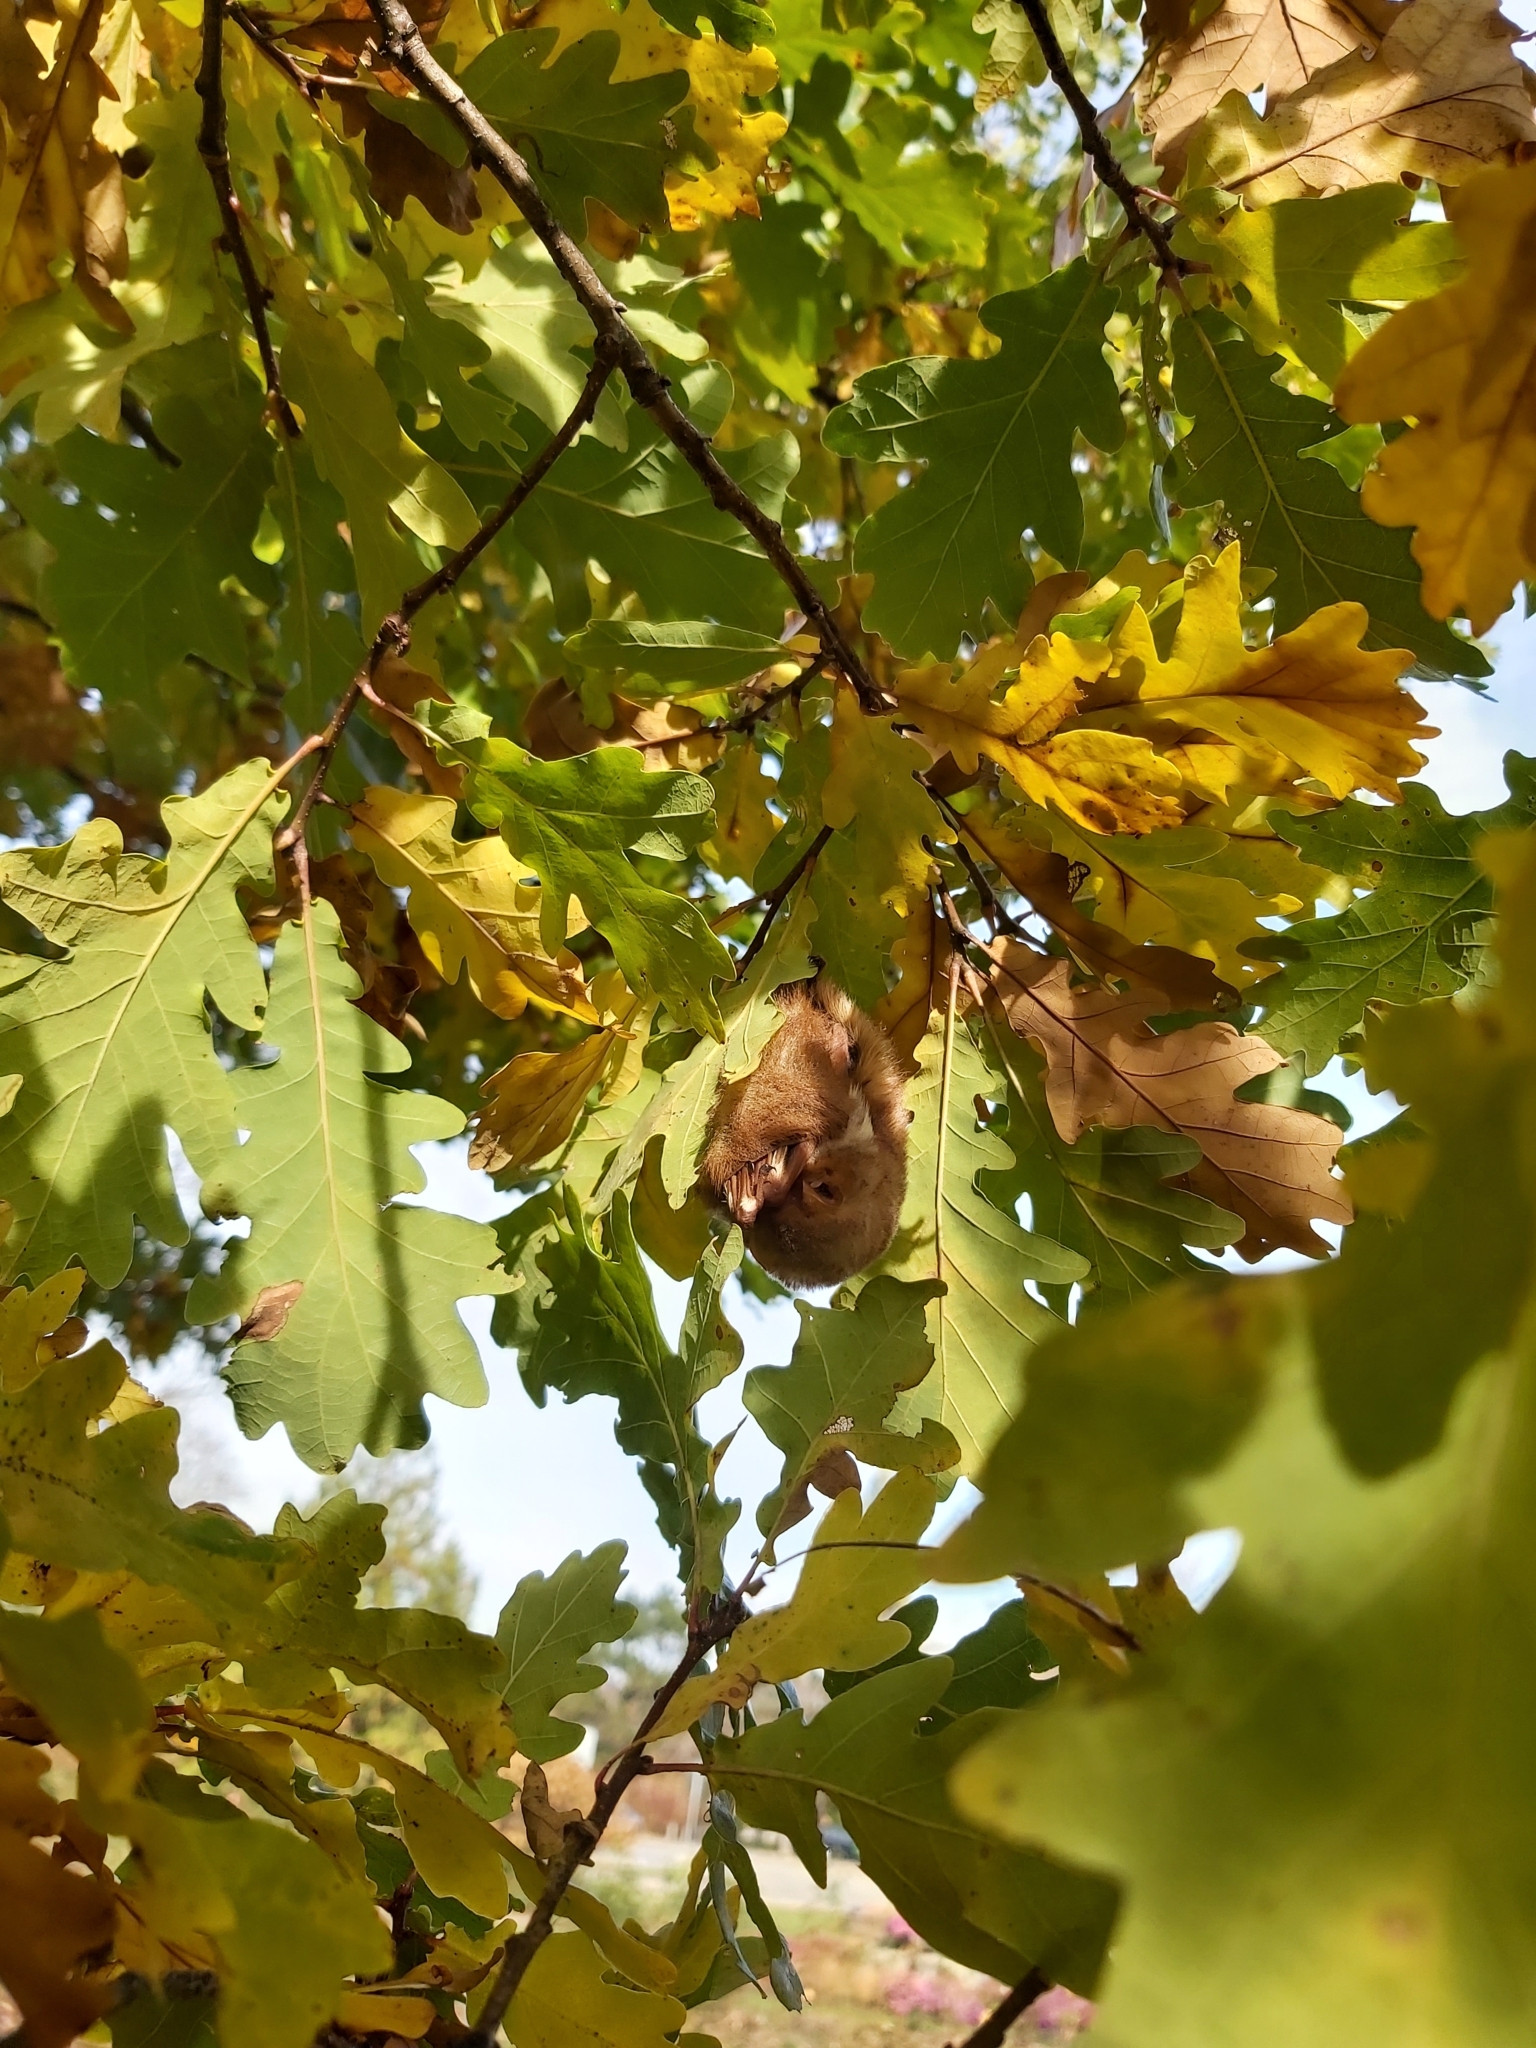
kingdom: Animalia
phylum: Chordata
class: Mammalia
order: Chiroptera
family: Vespertilionidae
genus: Lasiurus
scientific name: Lasiurus borealis
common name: Eastern red bat
